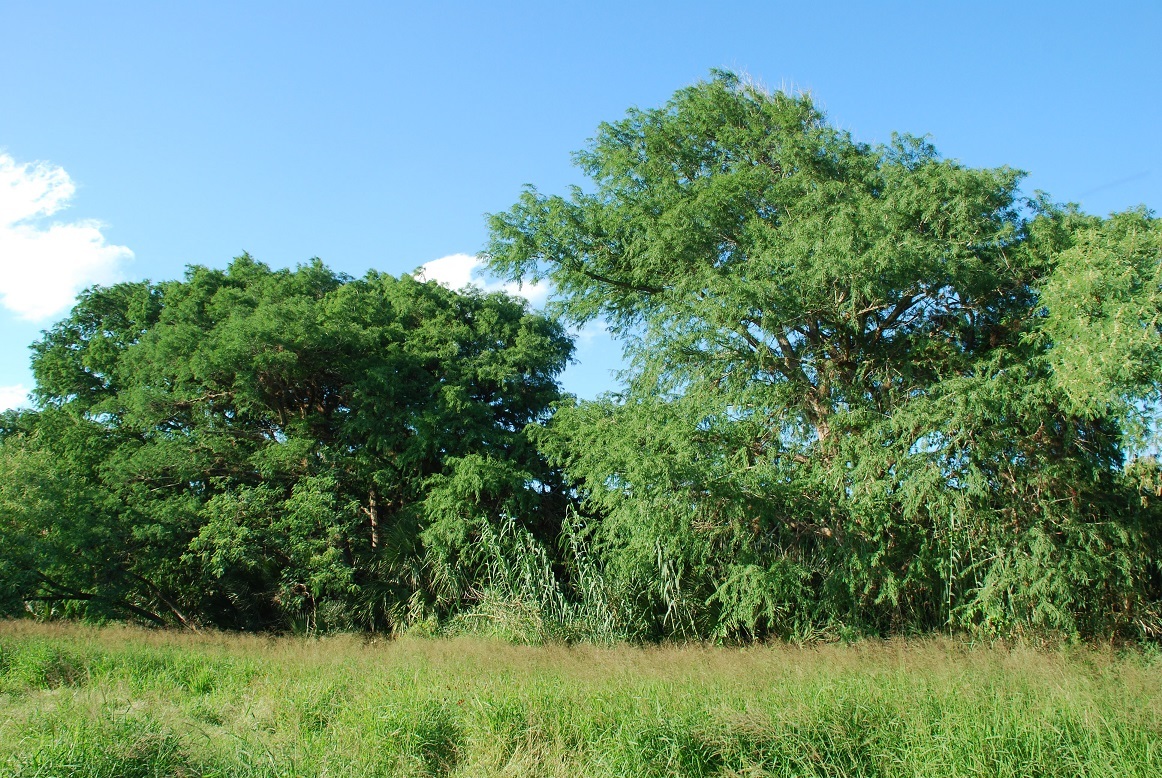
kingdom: Plantae
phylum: Tracheophyta
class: Pinopsida
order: Pinales
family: Cupressaceae
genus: Taxodium
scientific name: Taxodium mucronatum
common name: Montezume bald cypress
